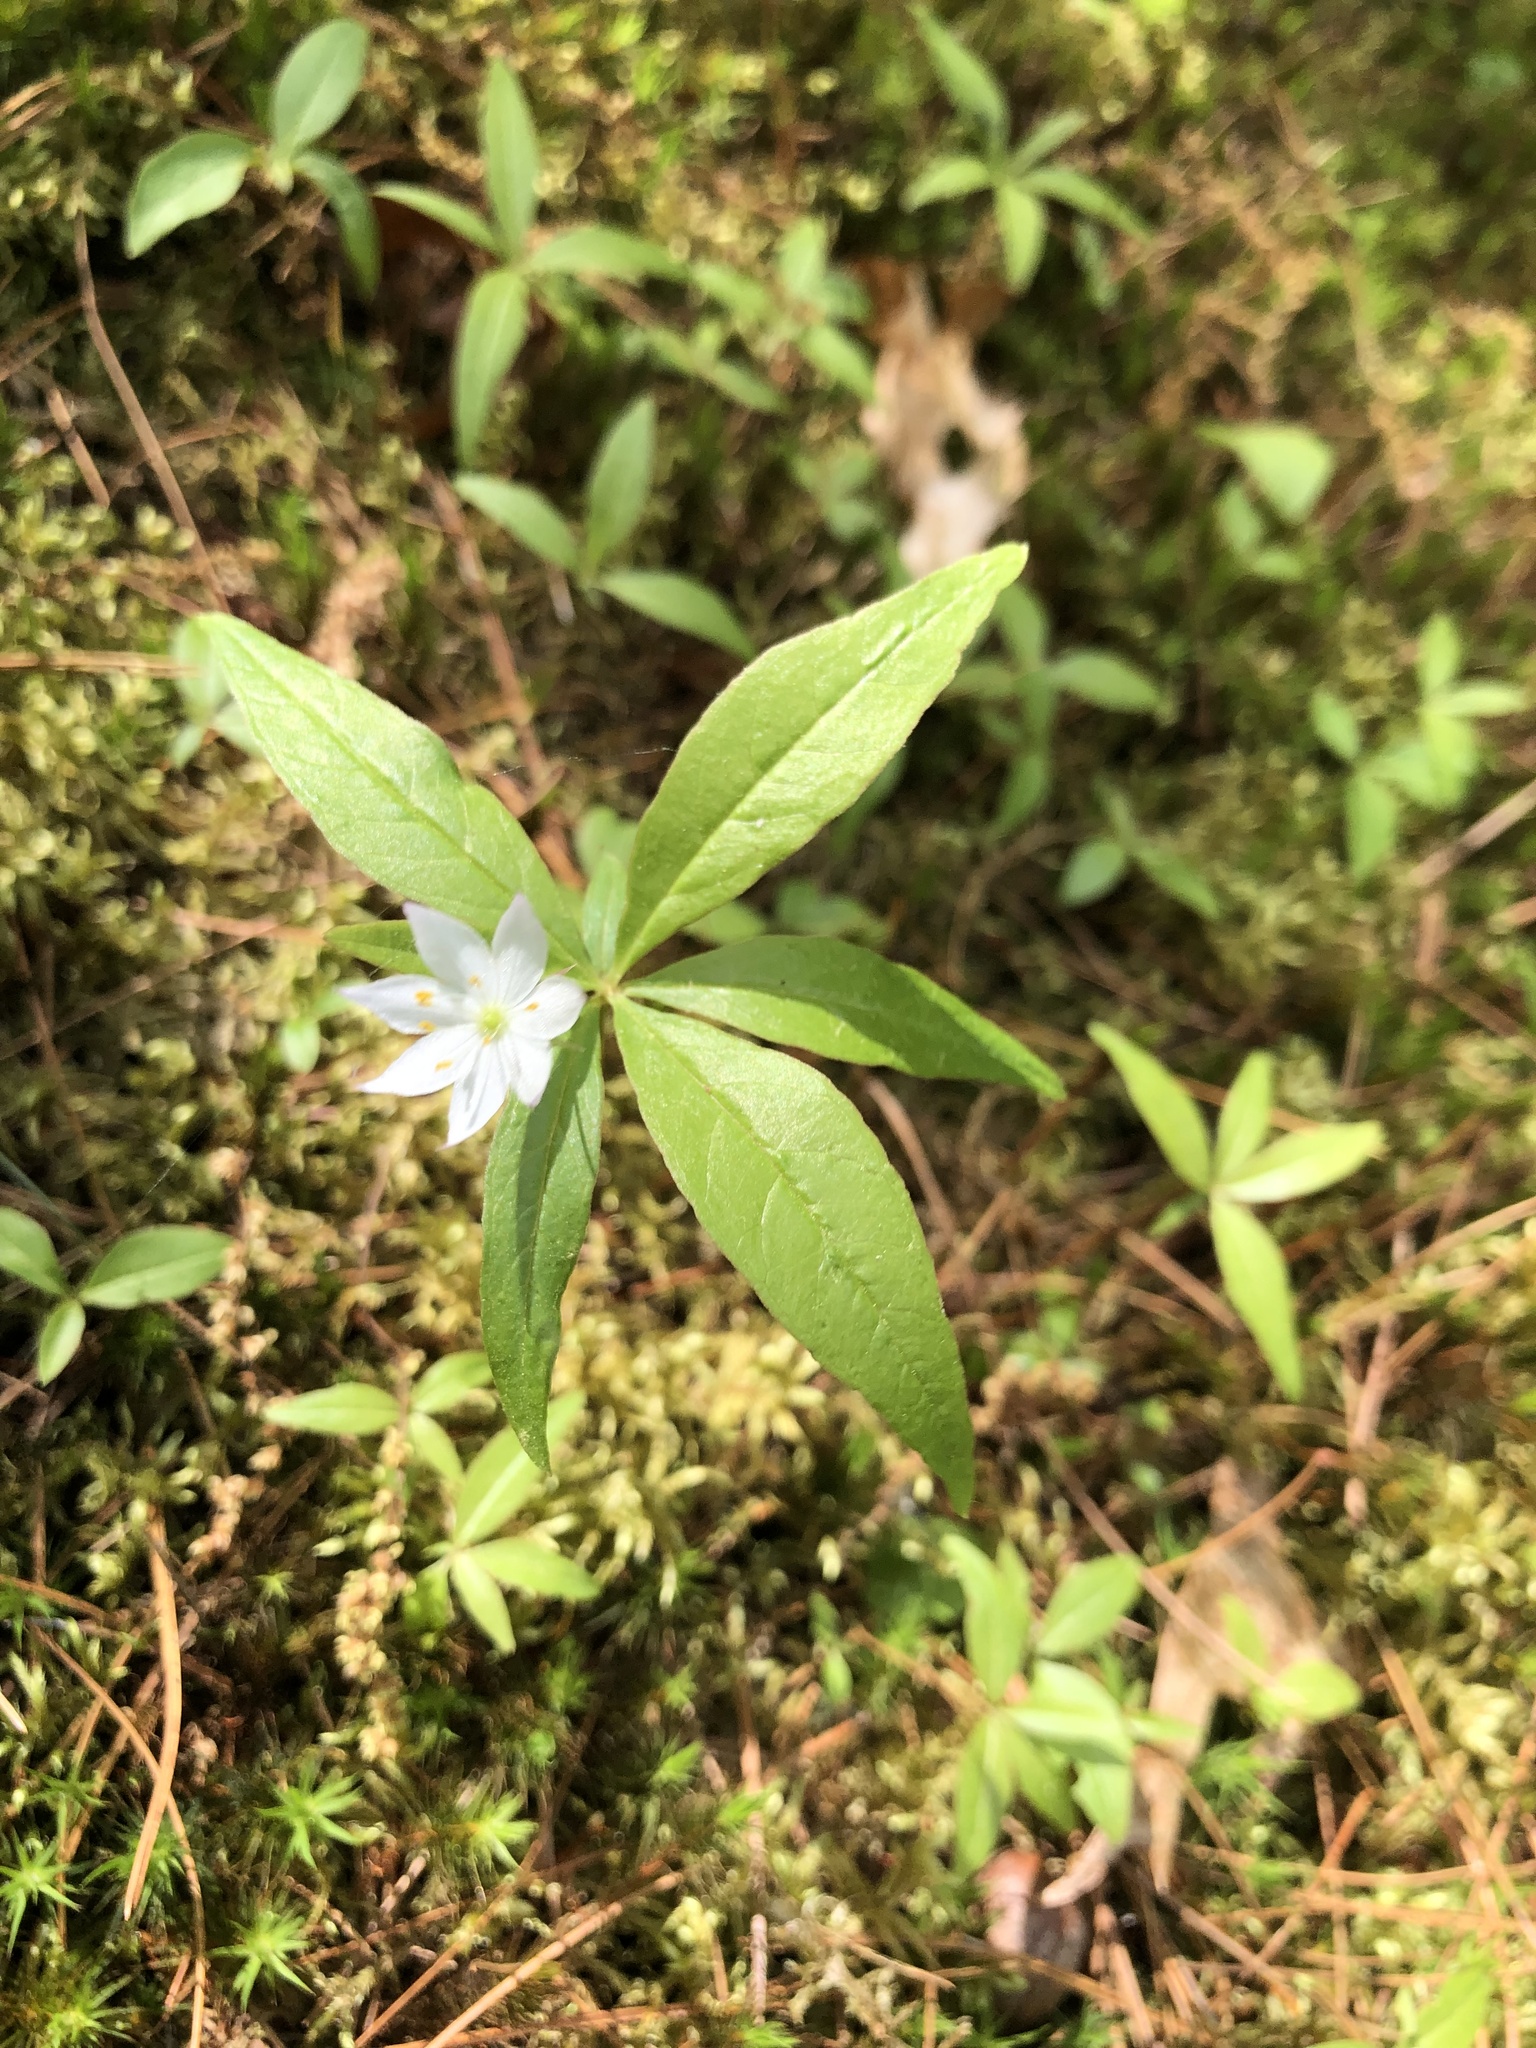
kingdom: Plantae
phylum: Tracheophyta
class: Magnoliopsida
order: Ericales
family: Primulaceae
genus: Lysimachia
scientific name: Lysimachia borealis
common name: American starflower
